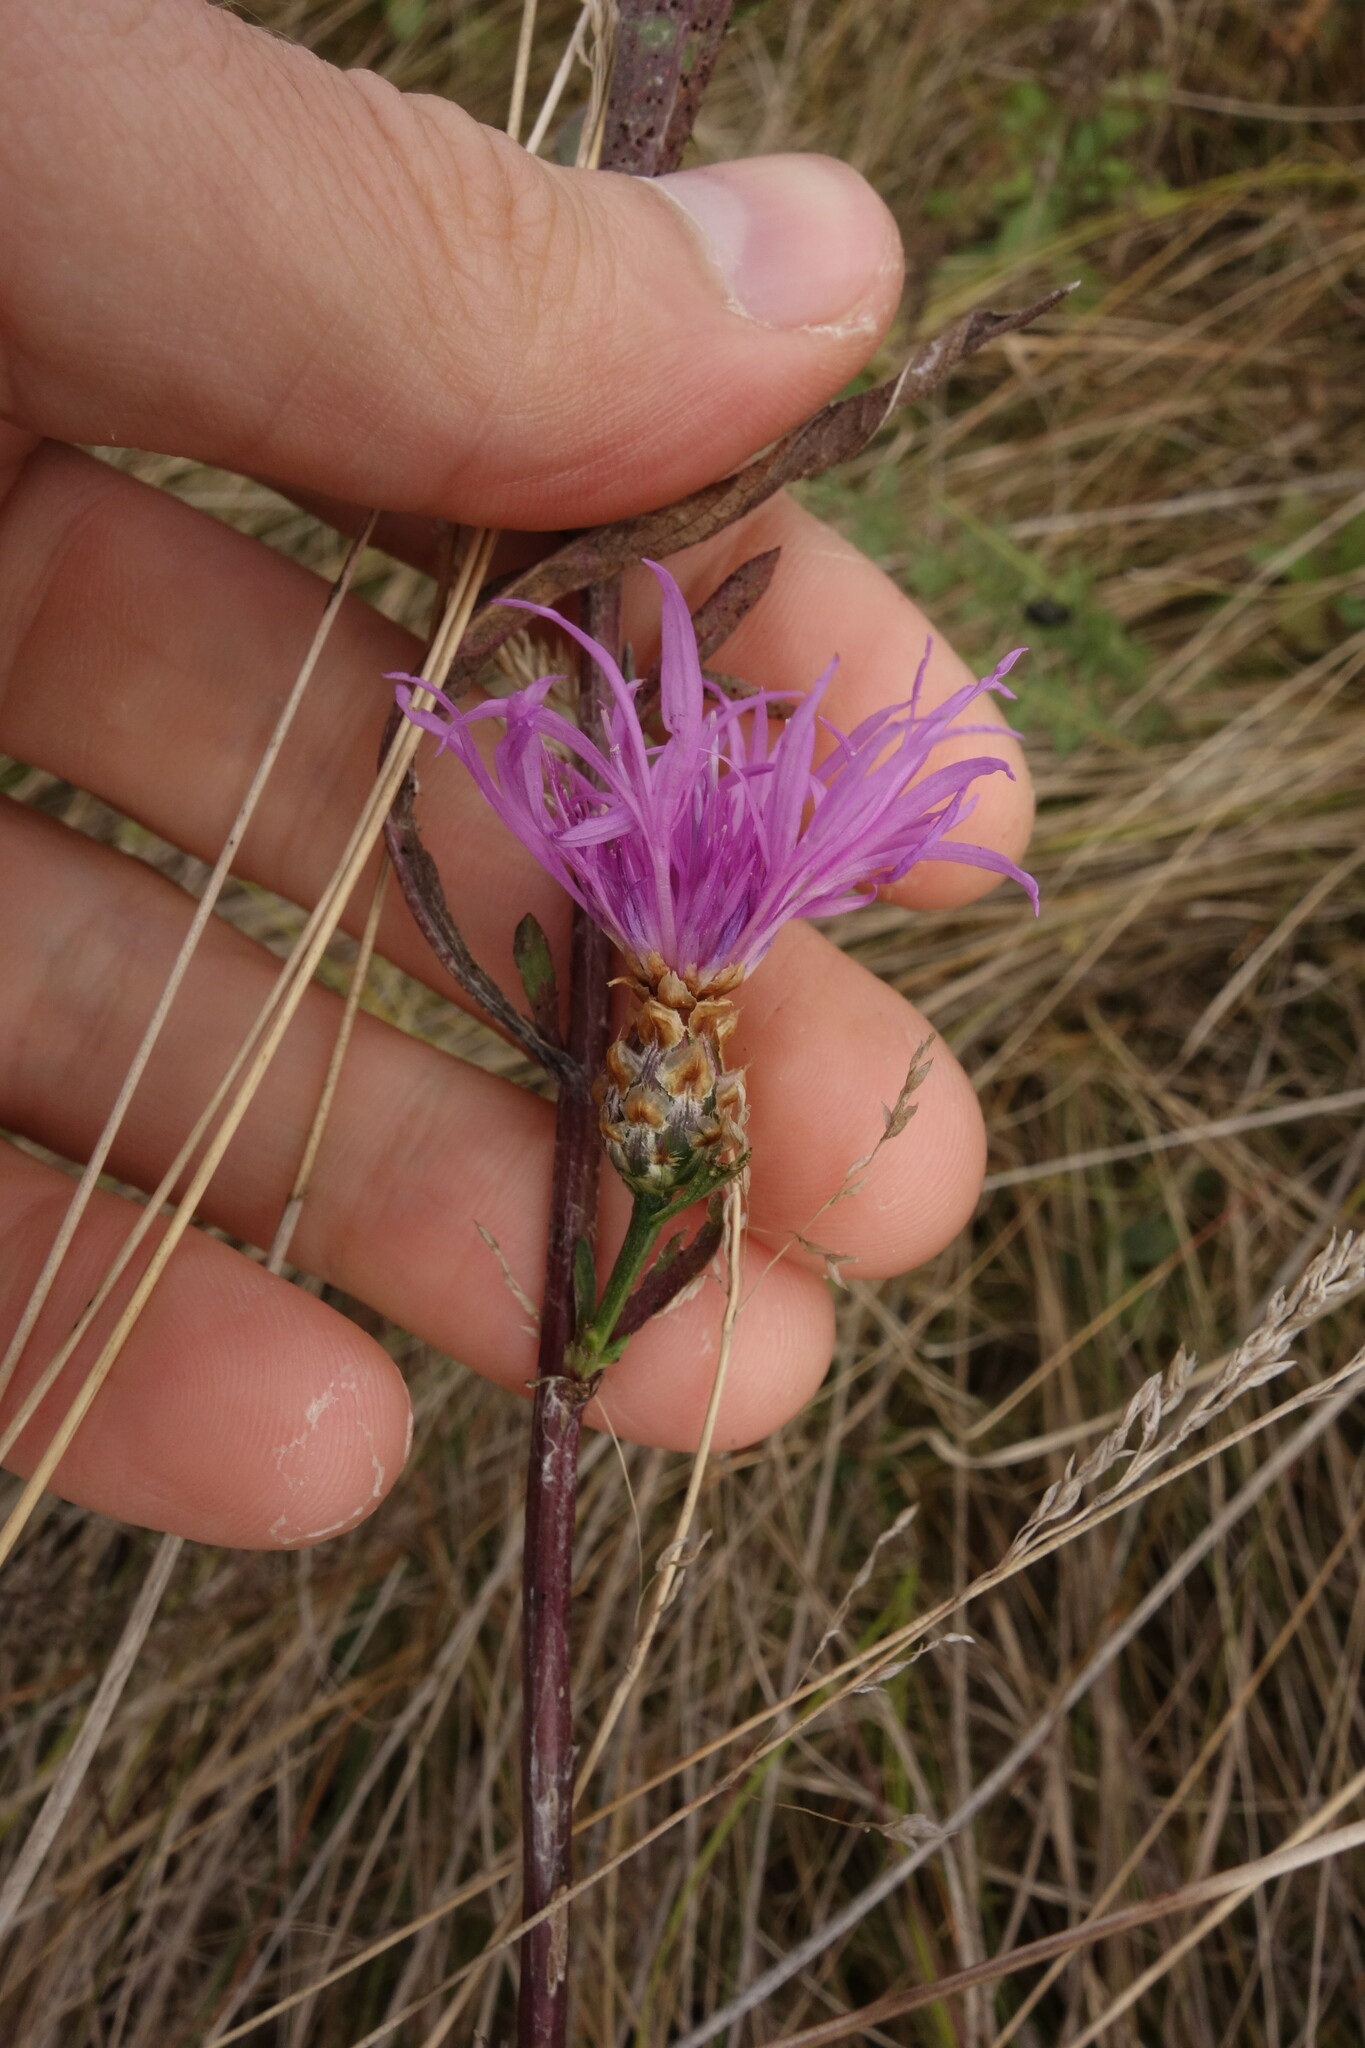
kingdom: Plantae
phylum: Tracheophyta
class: Magnoliopsida
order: Asterales
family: Asteraceae
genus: Centaurea
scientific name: Centaurea jacea
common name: Brown knapweed
